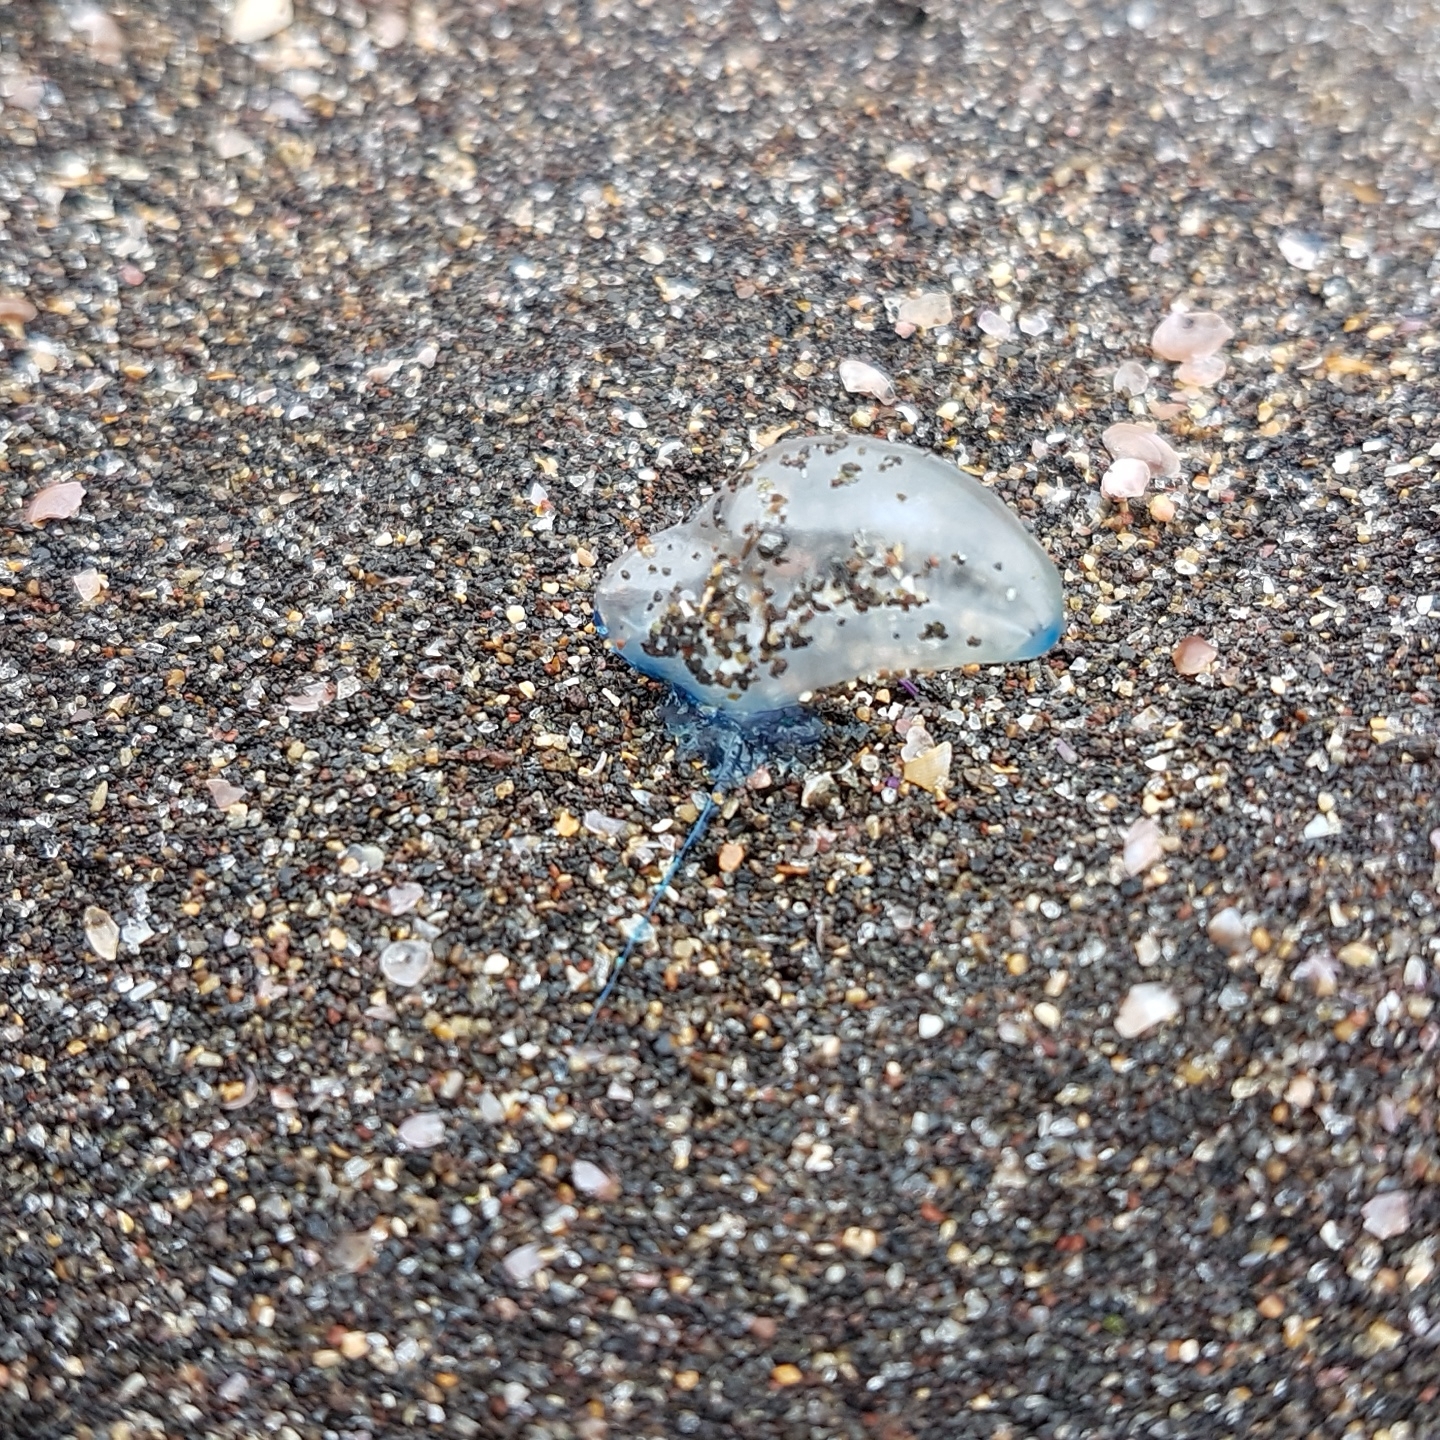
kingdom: Animalia
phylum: Cnidaria
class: Hydrozoa
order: Siphonophorae
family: Physaliidae
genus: Physalia
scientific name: Physalia physalis
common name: Portuguese man-of-war
